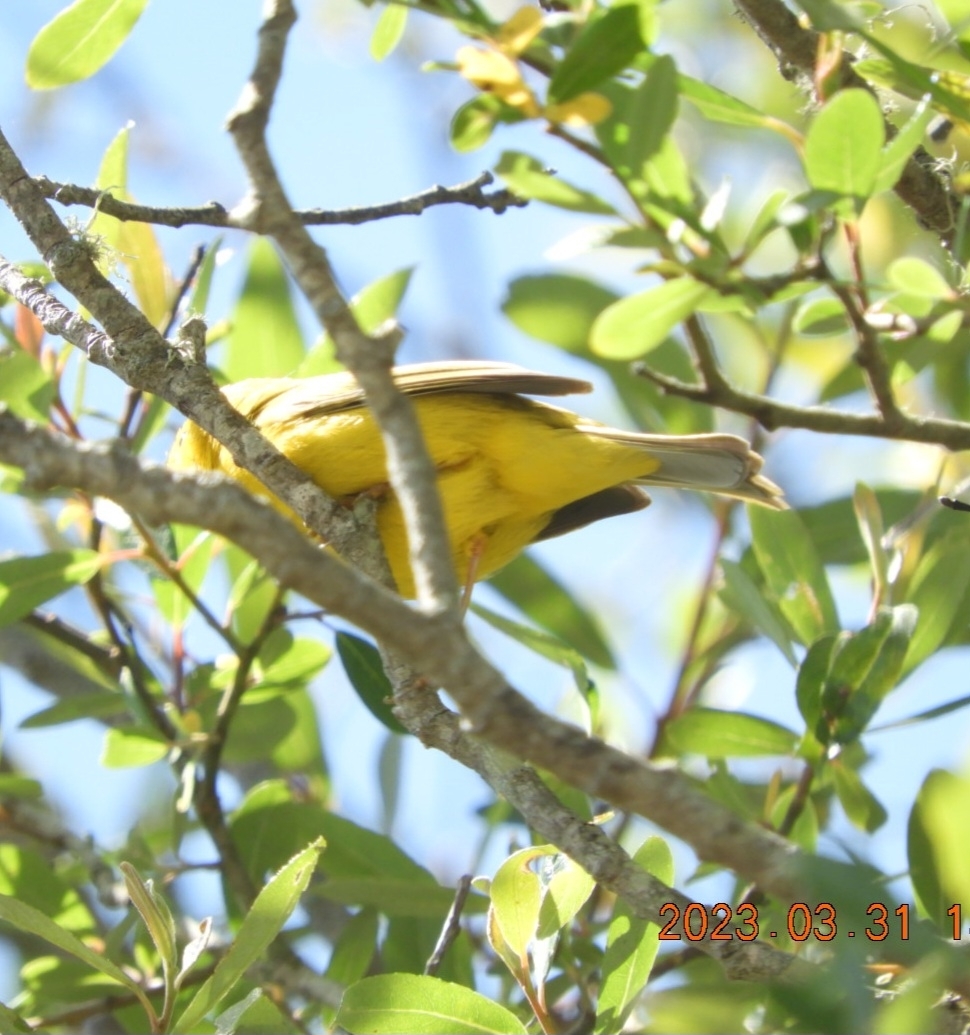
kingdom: Animalia
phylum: Chordata
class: Aves
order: Passeriformes
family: Parulidae
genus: Cardellina
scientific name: Cardellina pusilla
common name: Wilson's warbler
